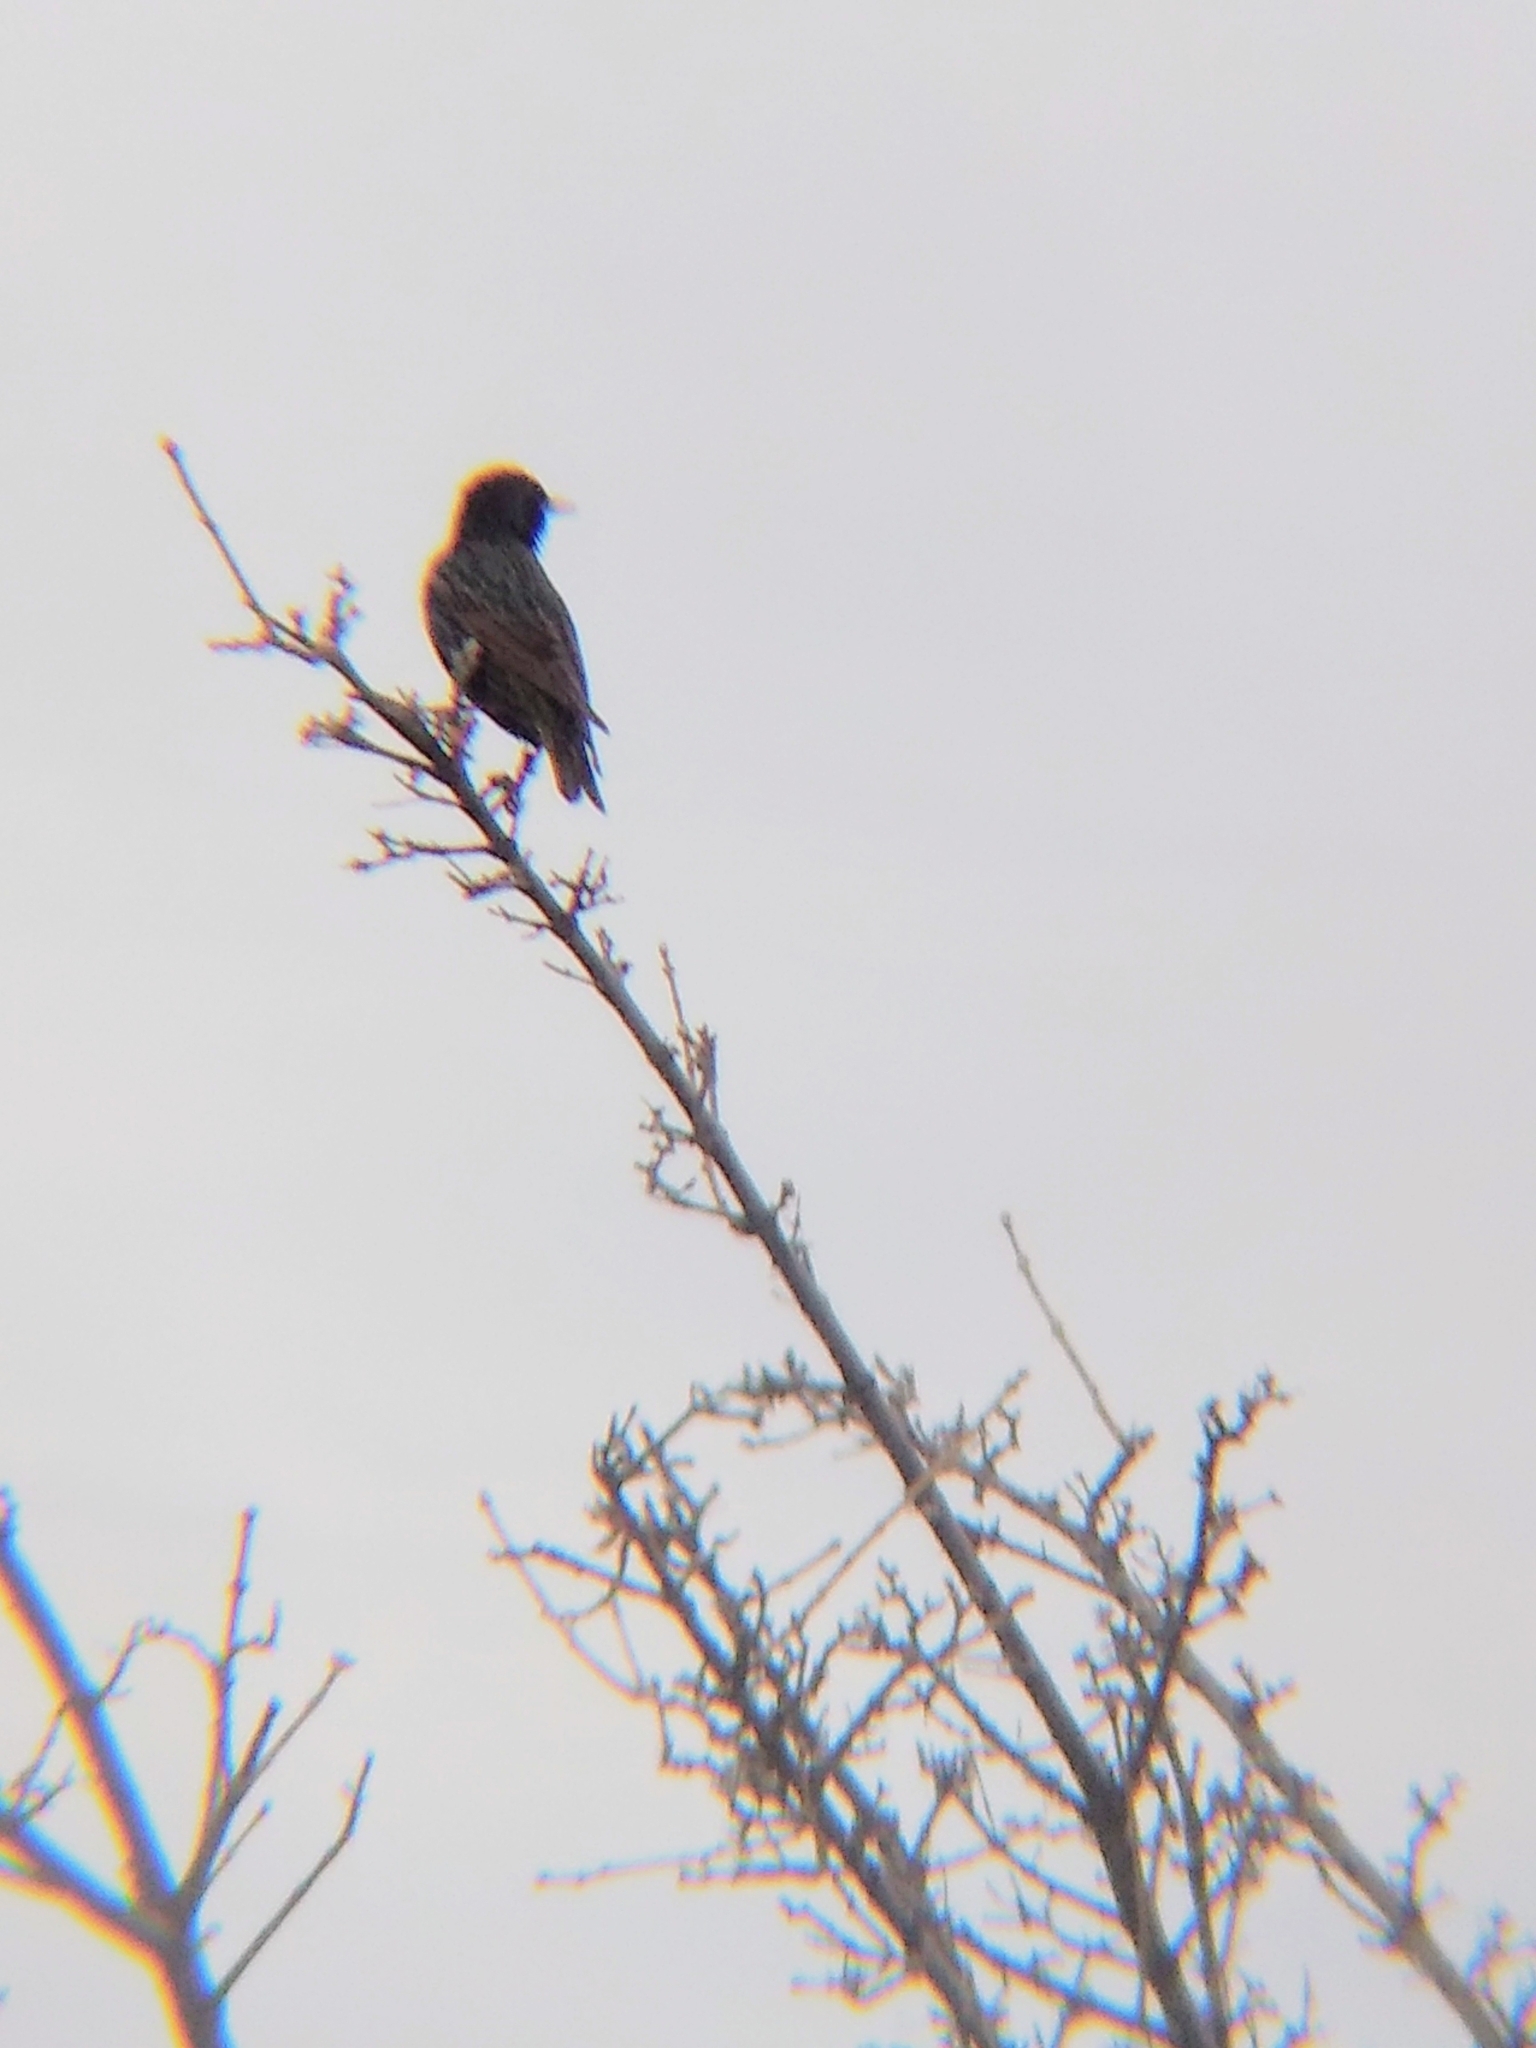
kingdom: Animalia
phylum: Chordata
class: Aves
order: Passeriformes
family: Sturnidae
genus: Sturnus
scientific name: Sturnus vulgaris
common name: Common starling
